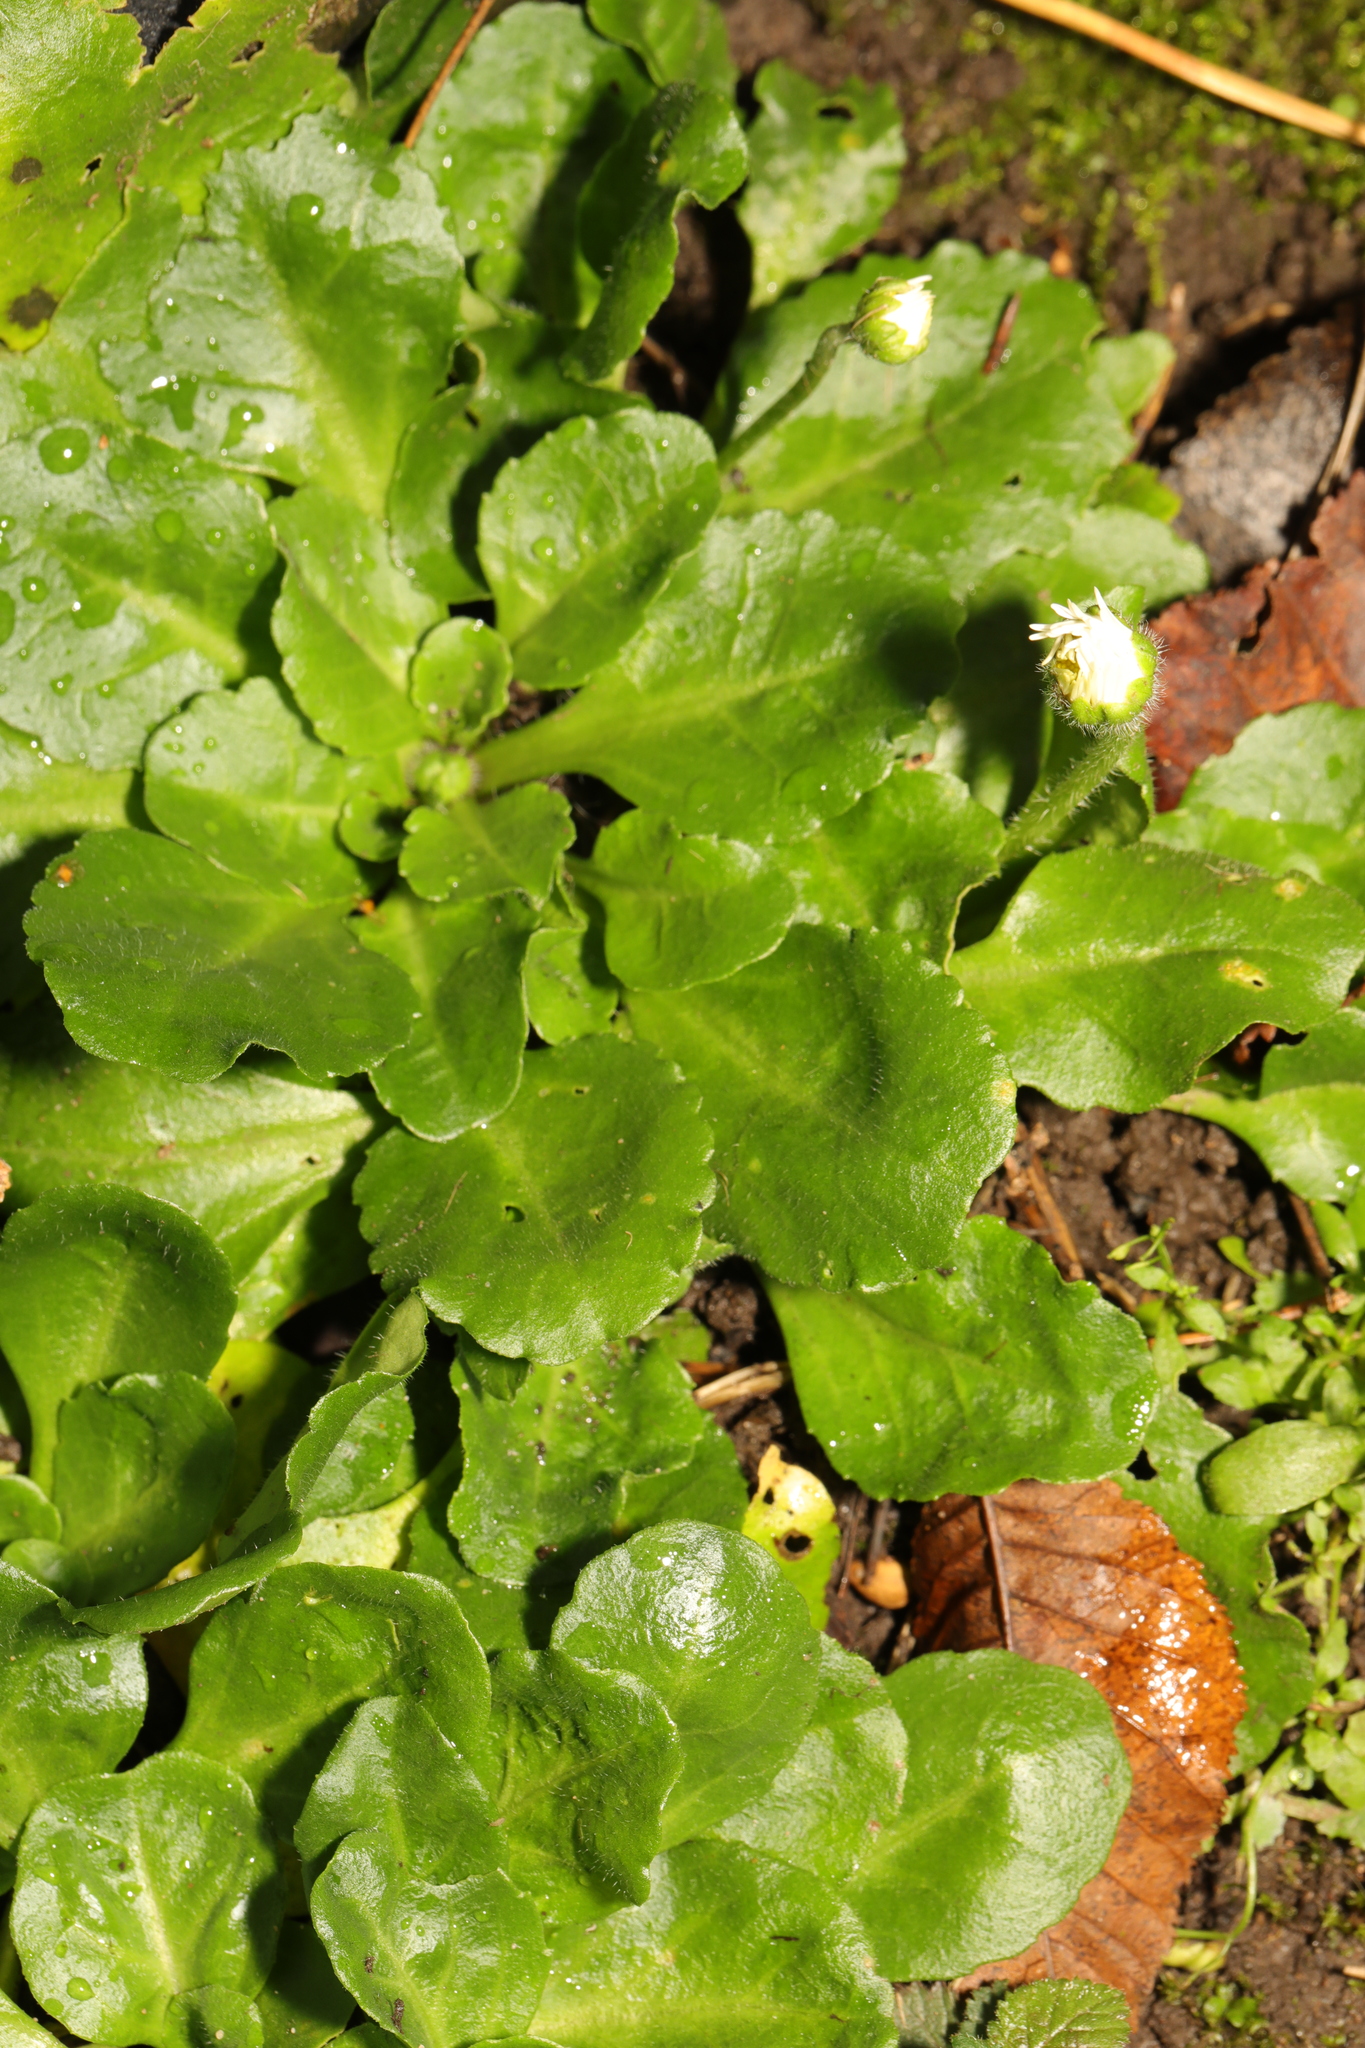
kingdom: Plantae
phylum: Tracheophyta
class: Magnoliopsida
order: Asterales
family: Asteraceae
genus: Bellis
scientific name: Bellis perennis
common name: Lawndaisy
